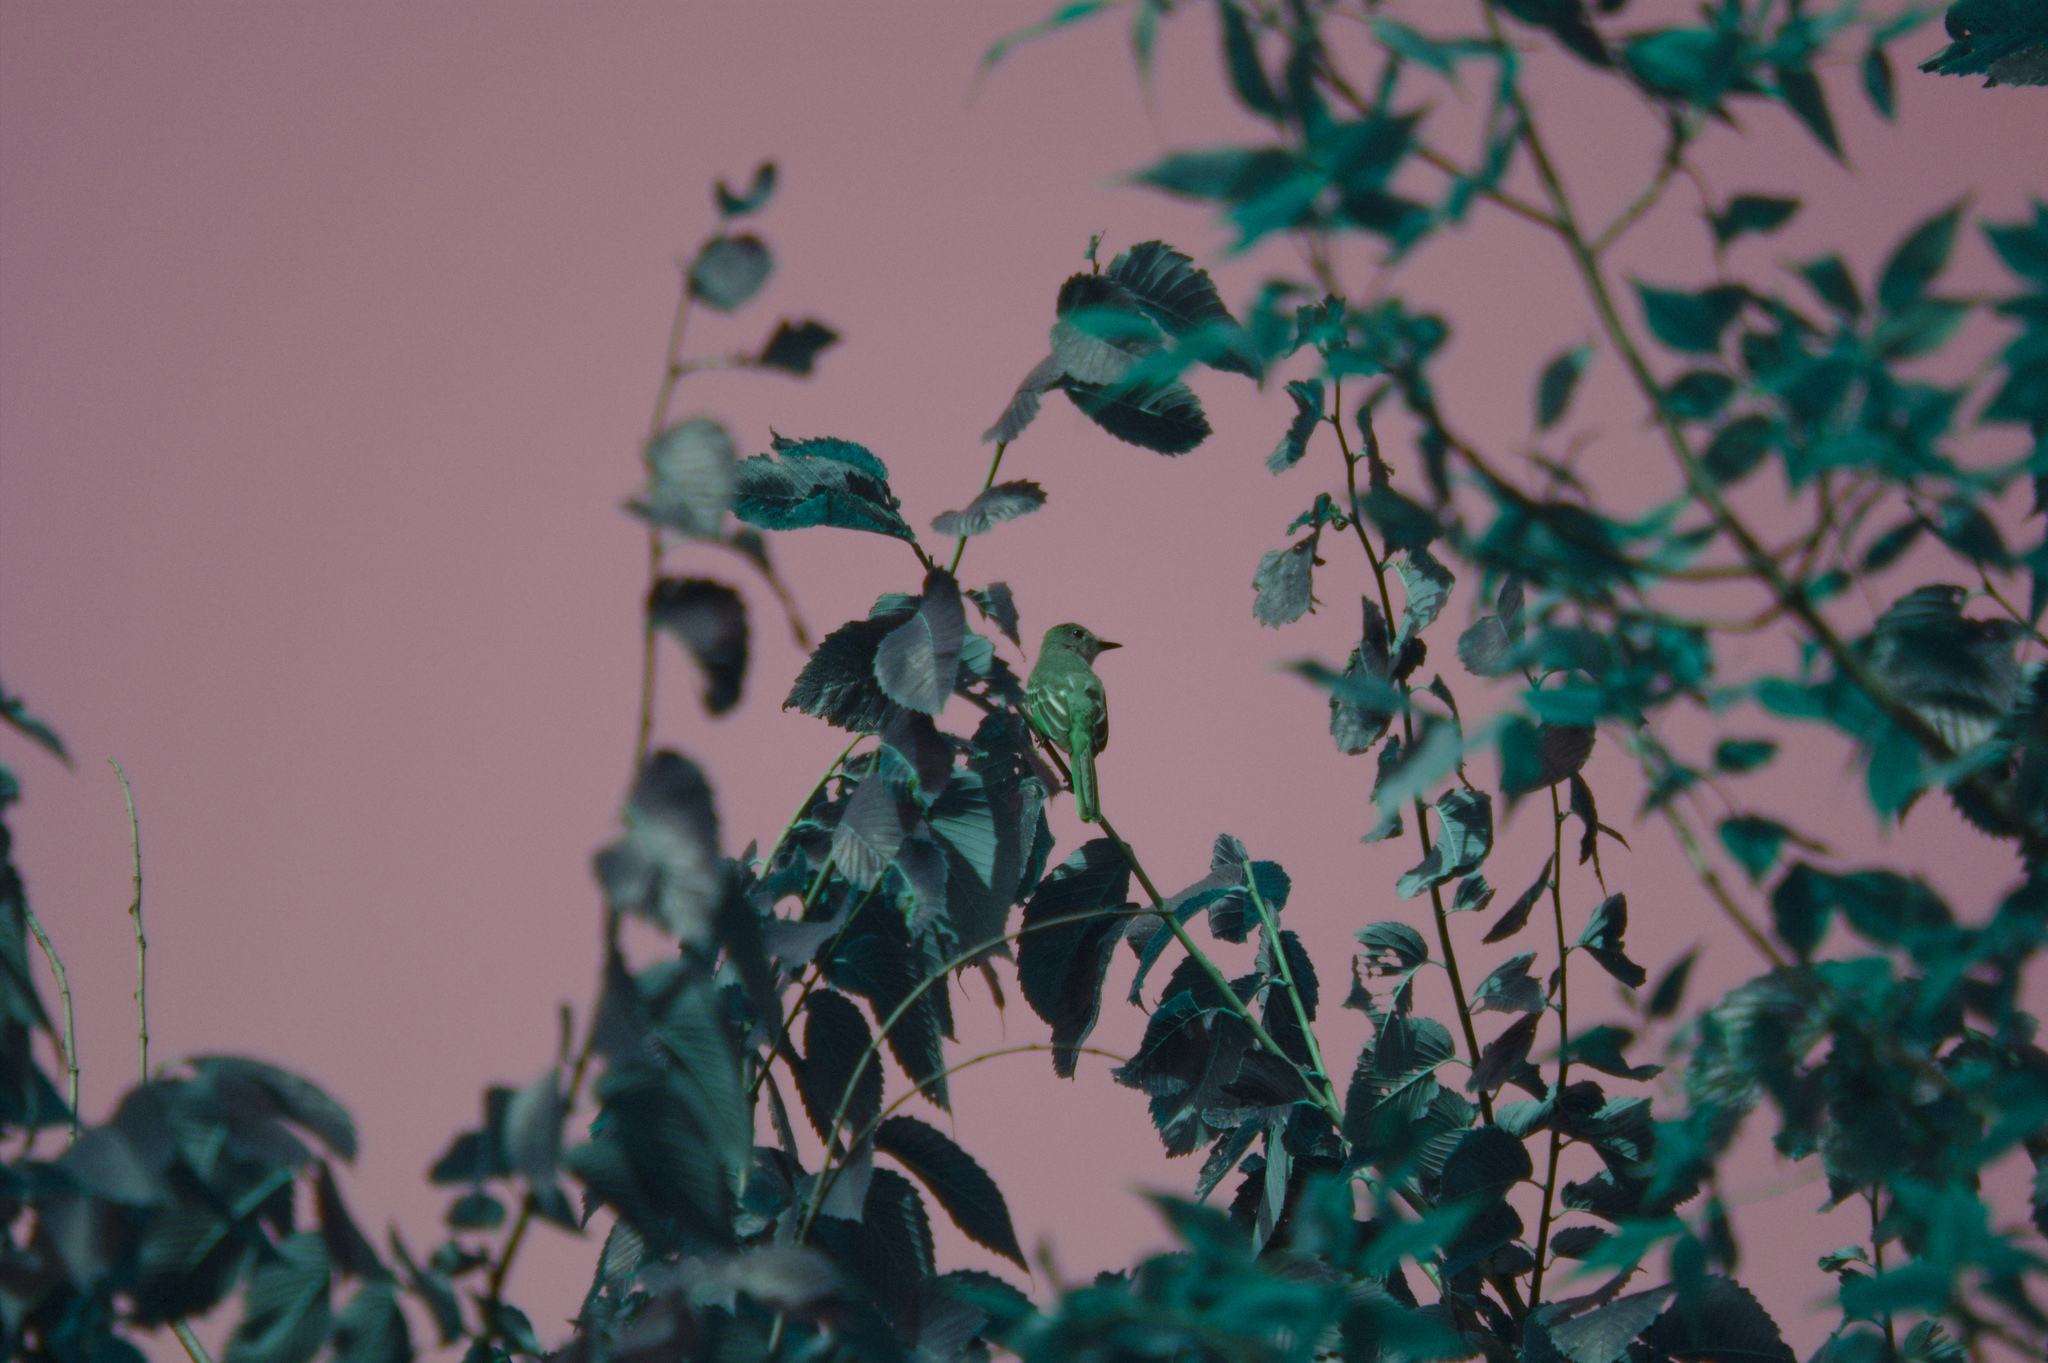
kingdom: Animalia
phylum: Chordata
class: Aves
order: Passeriformes
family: Tyrannidae
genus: Myiarchus
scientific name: Myiarchus crinitus
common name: Great crested flycatcher
